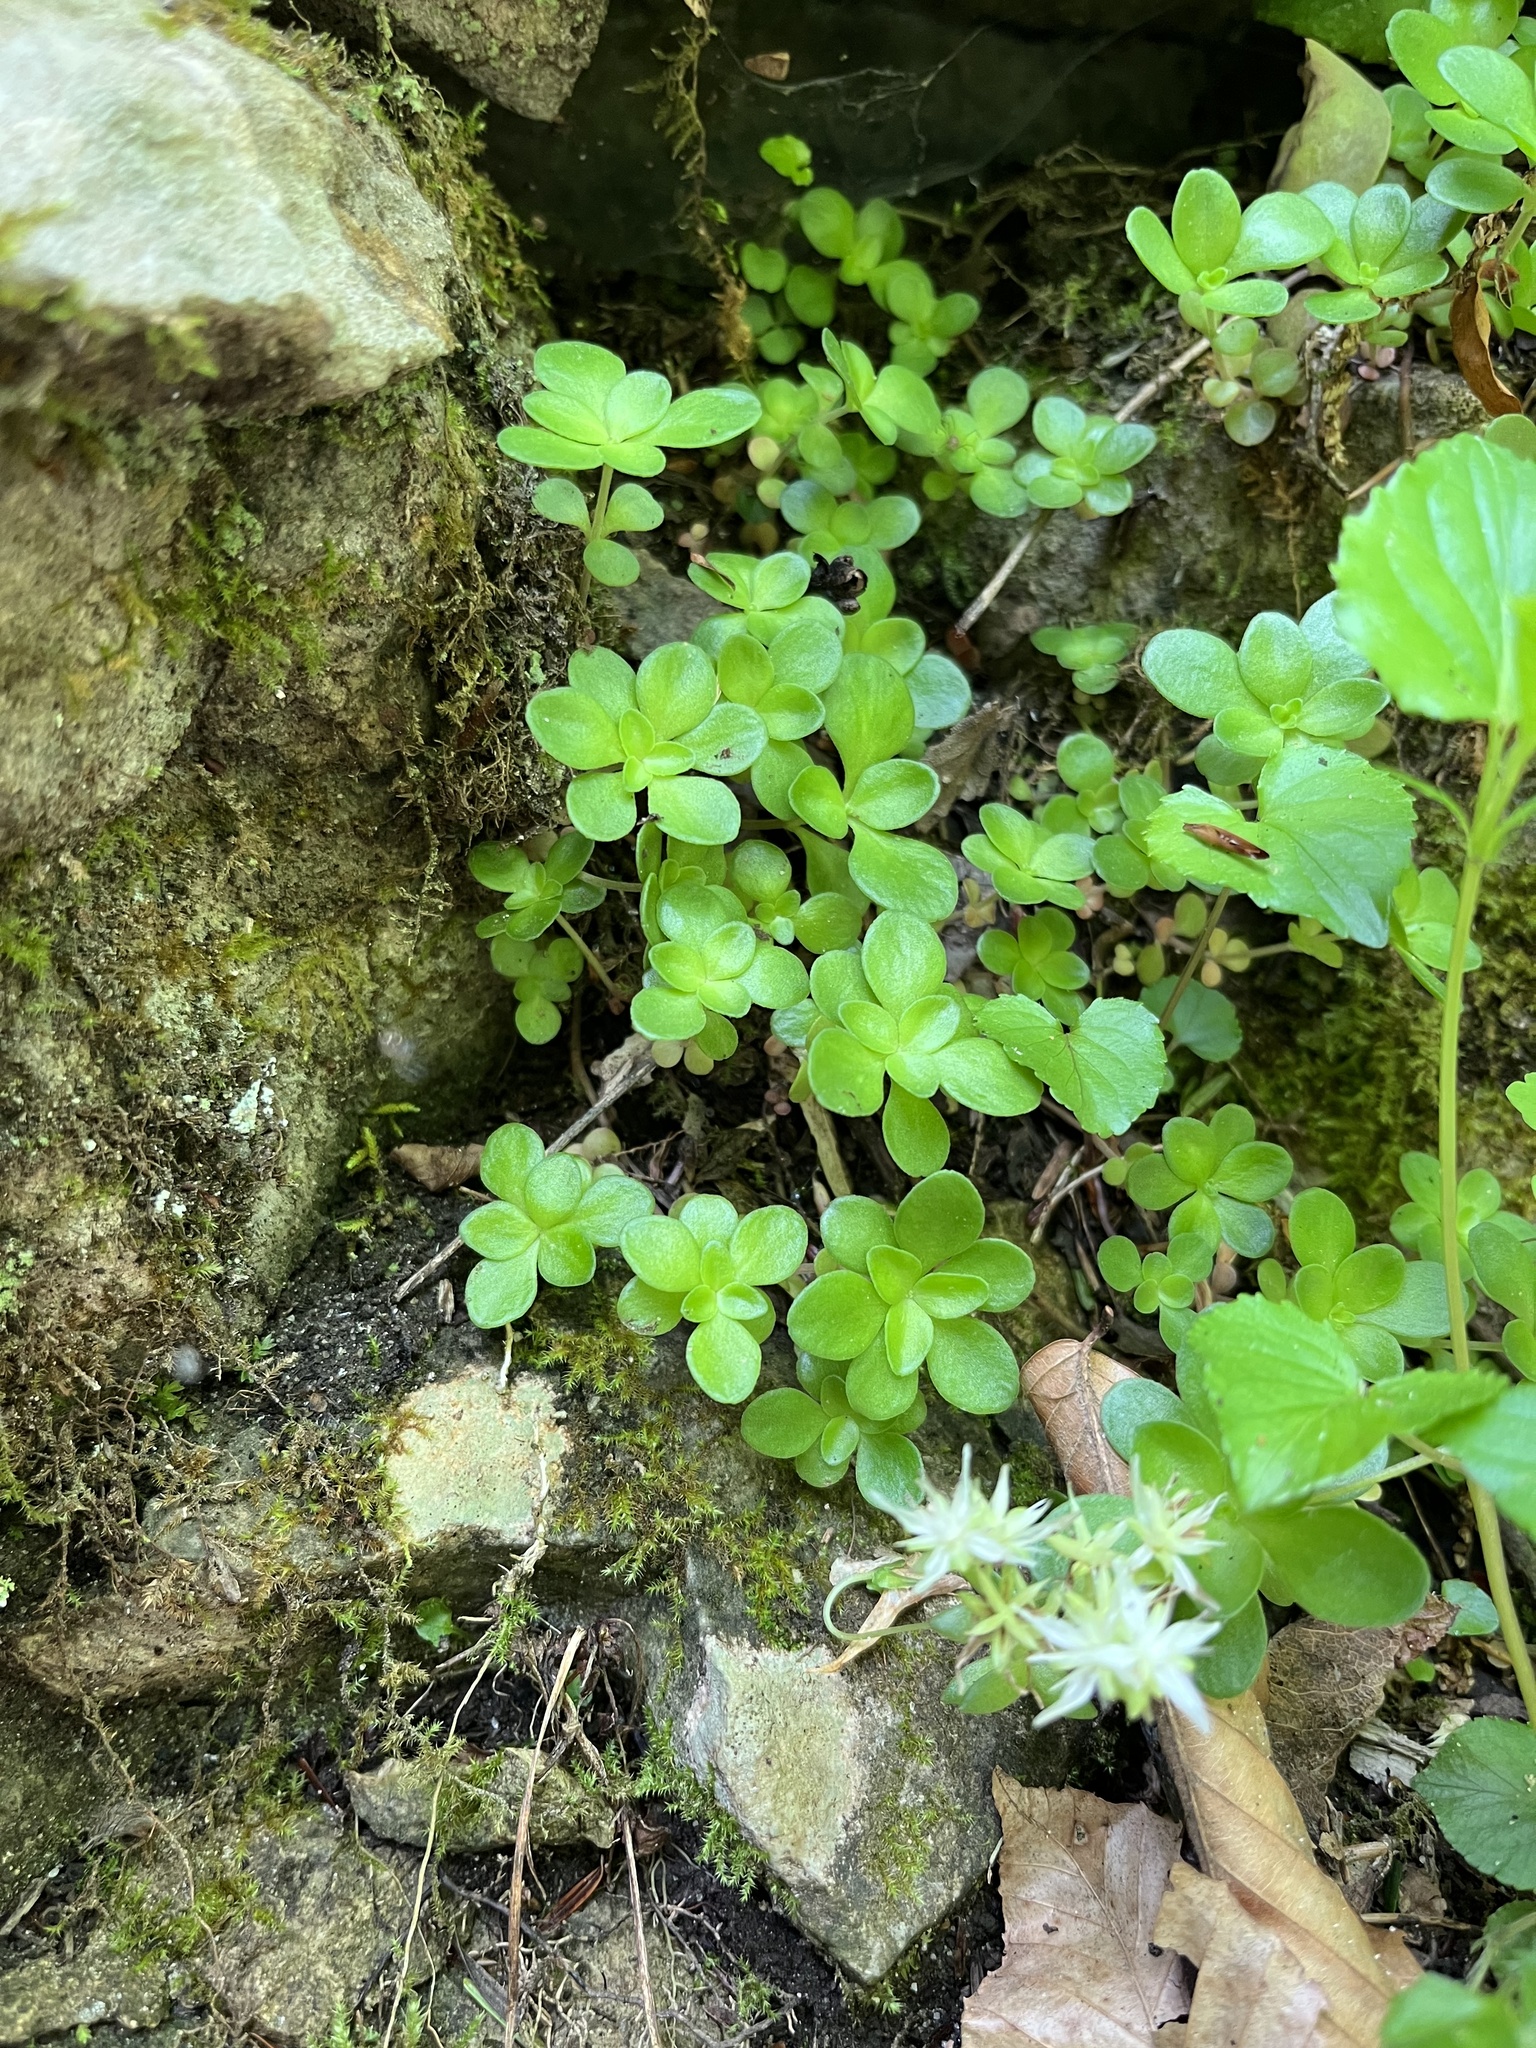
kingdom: Plantae
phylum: Tracheophyta
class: Magnoliopsida
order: Saxifragales
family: Crassulaceae
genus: Sedum
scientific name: Sedum ternatum
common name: Wild stonecrop
